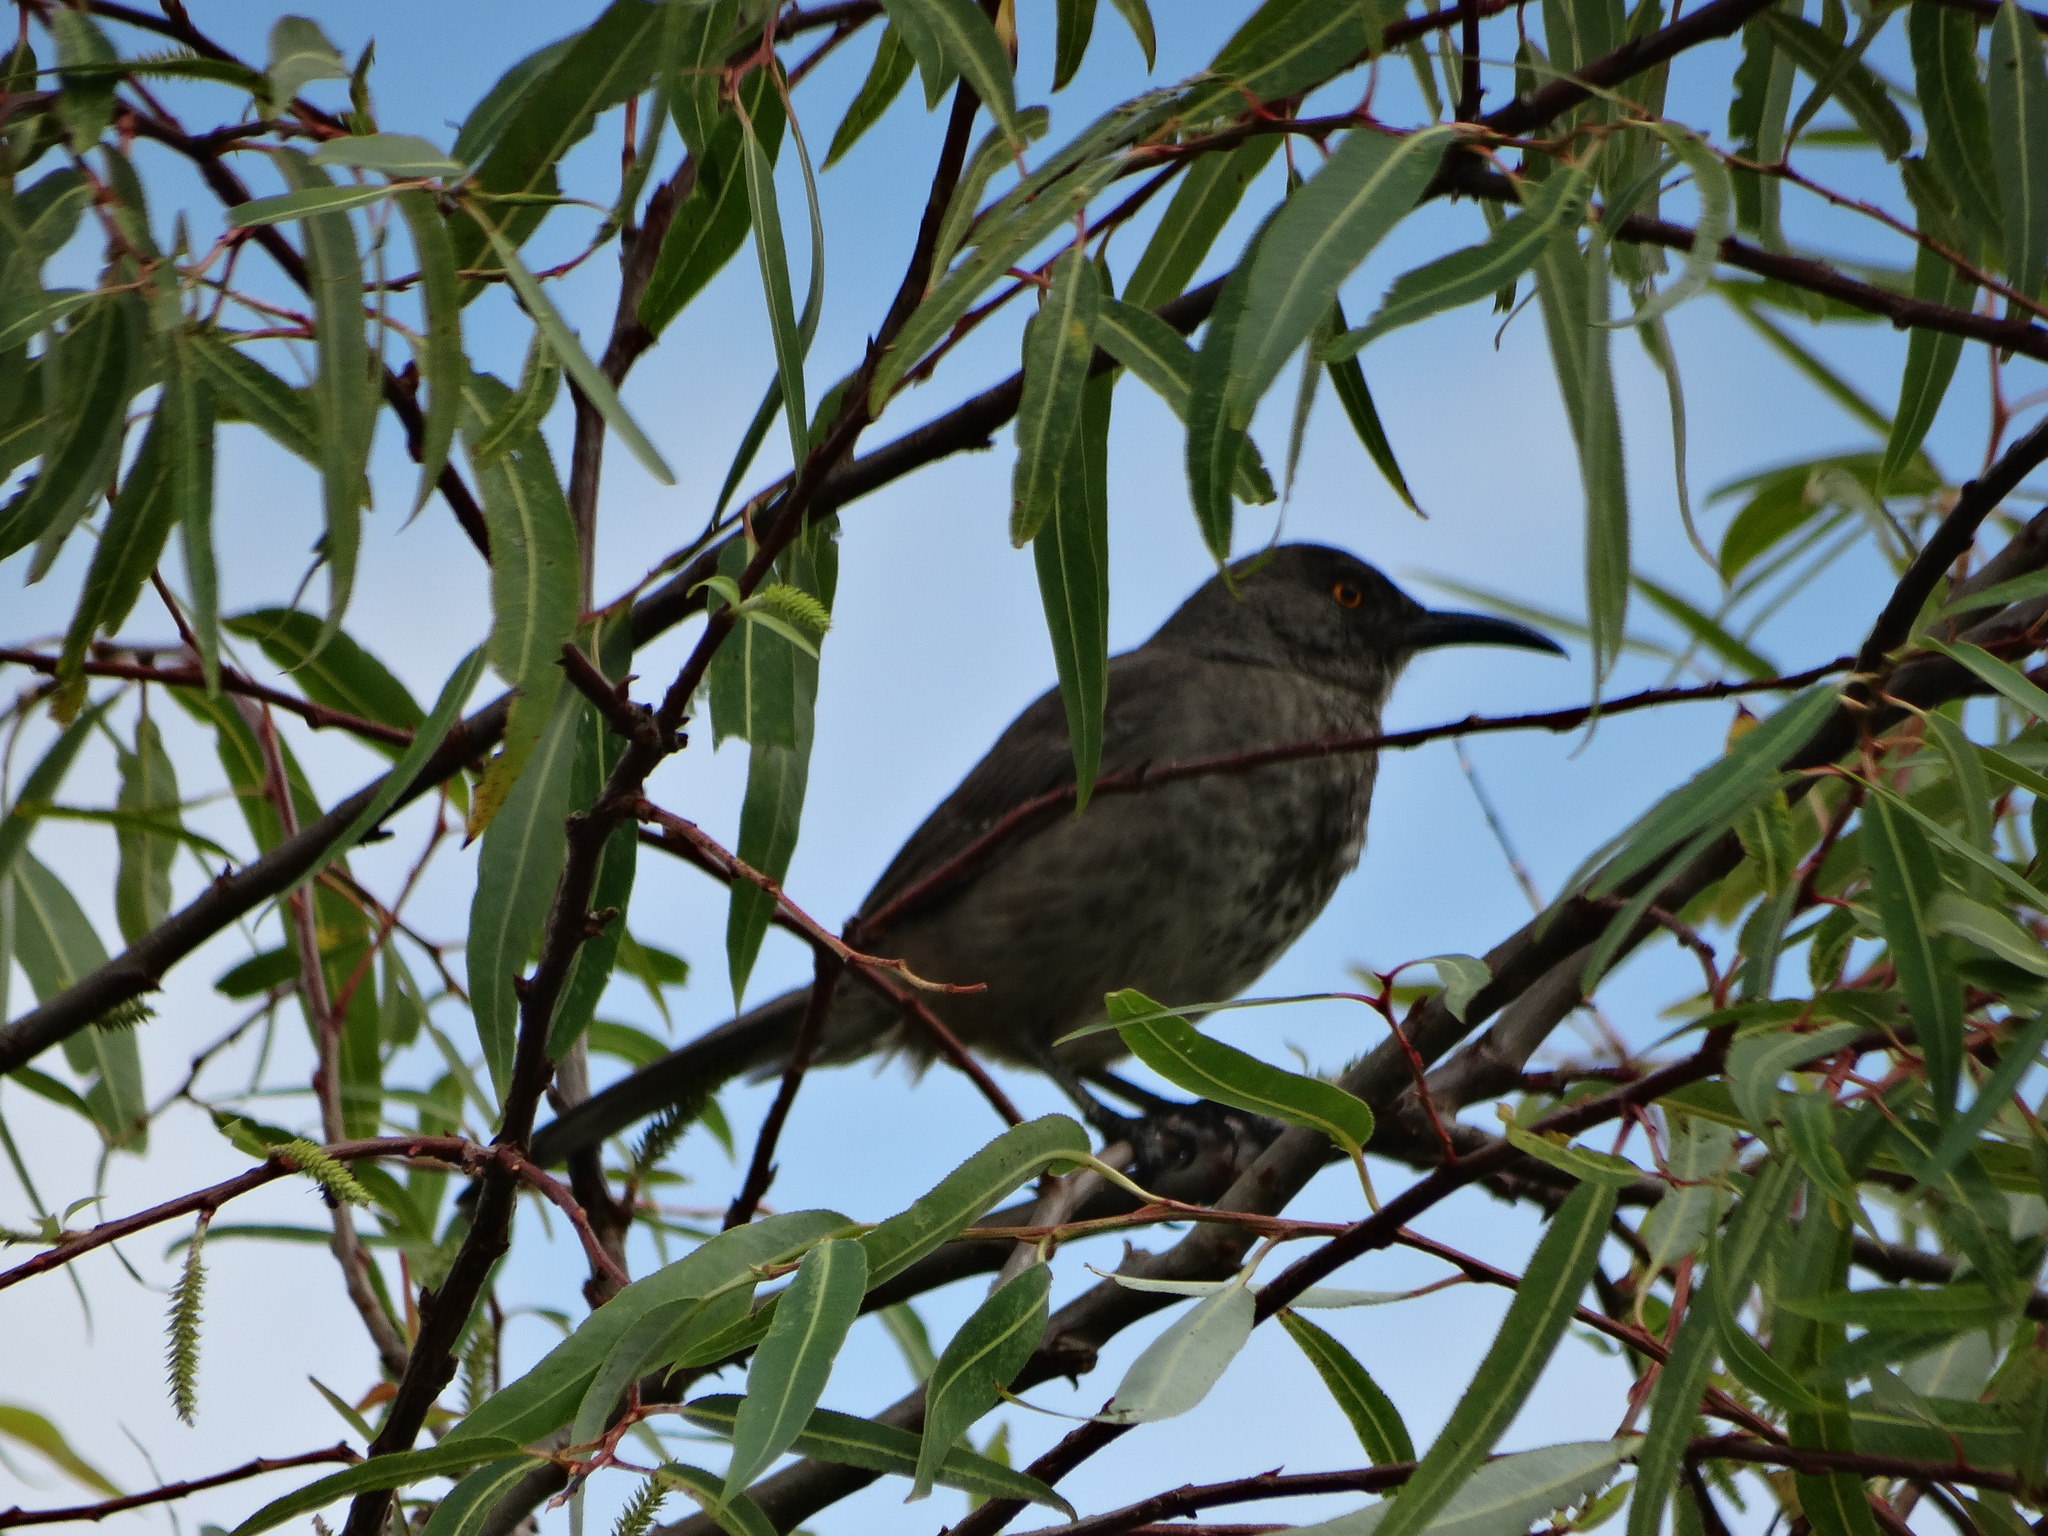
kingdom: Animalia
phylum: Chordata
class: Aves
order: Passeriformes
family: Mimidae
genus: Toxostoma
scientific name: Toxostoma curvirostre
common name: Curve-billed thrasher
